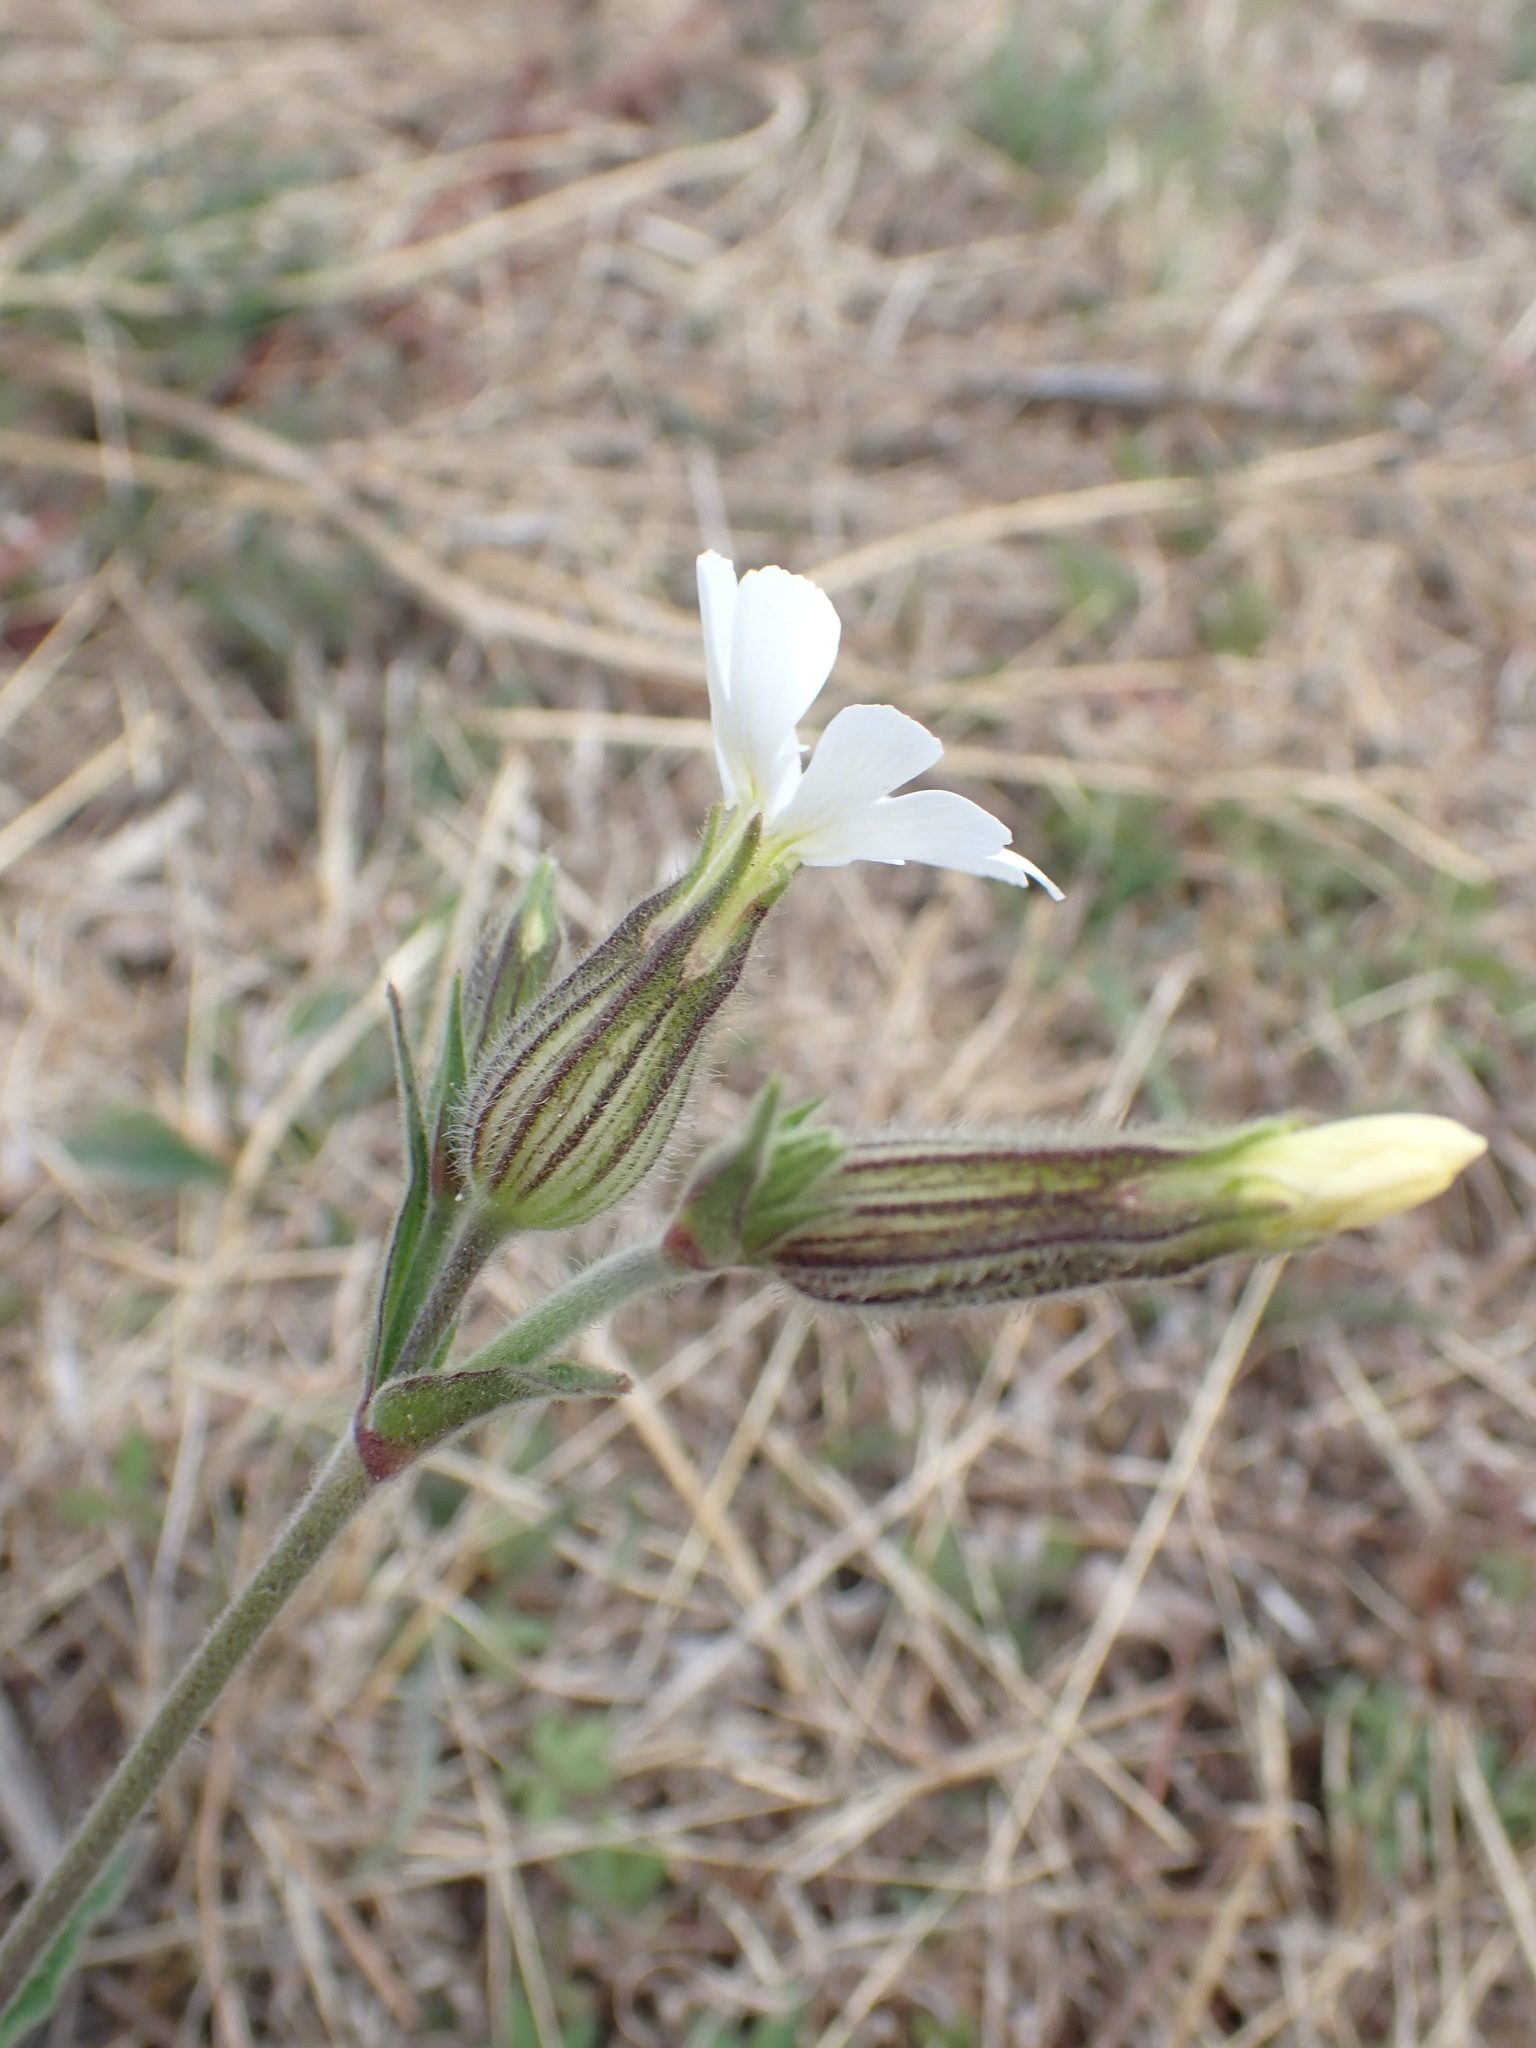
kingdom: Plantae
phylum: Tracheophyta
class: Magnoliopsida
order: Caryophyllales
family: Caryophyllaceae
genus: Silene
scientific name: Silene latifolia
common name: White campion
